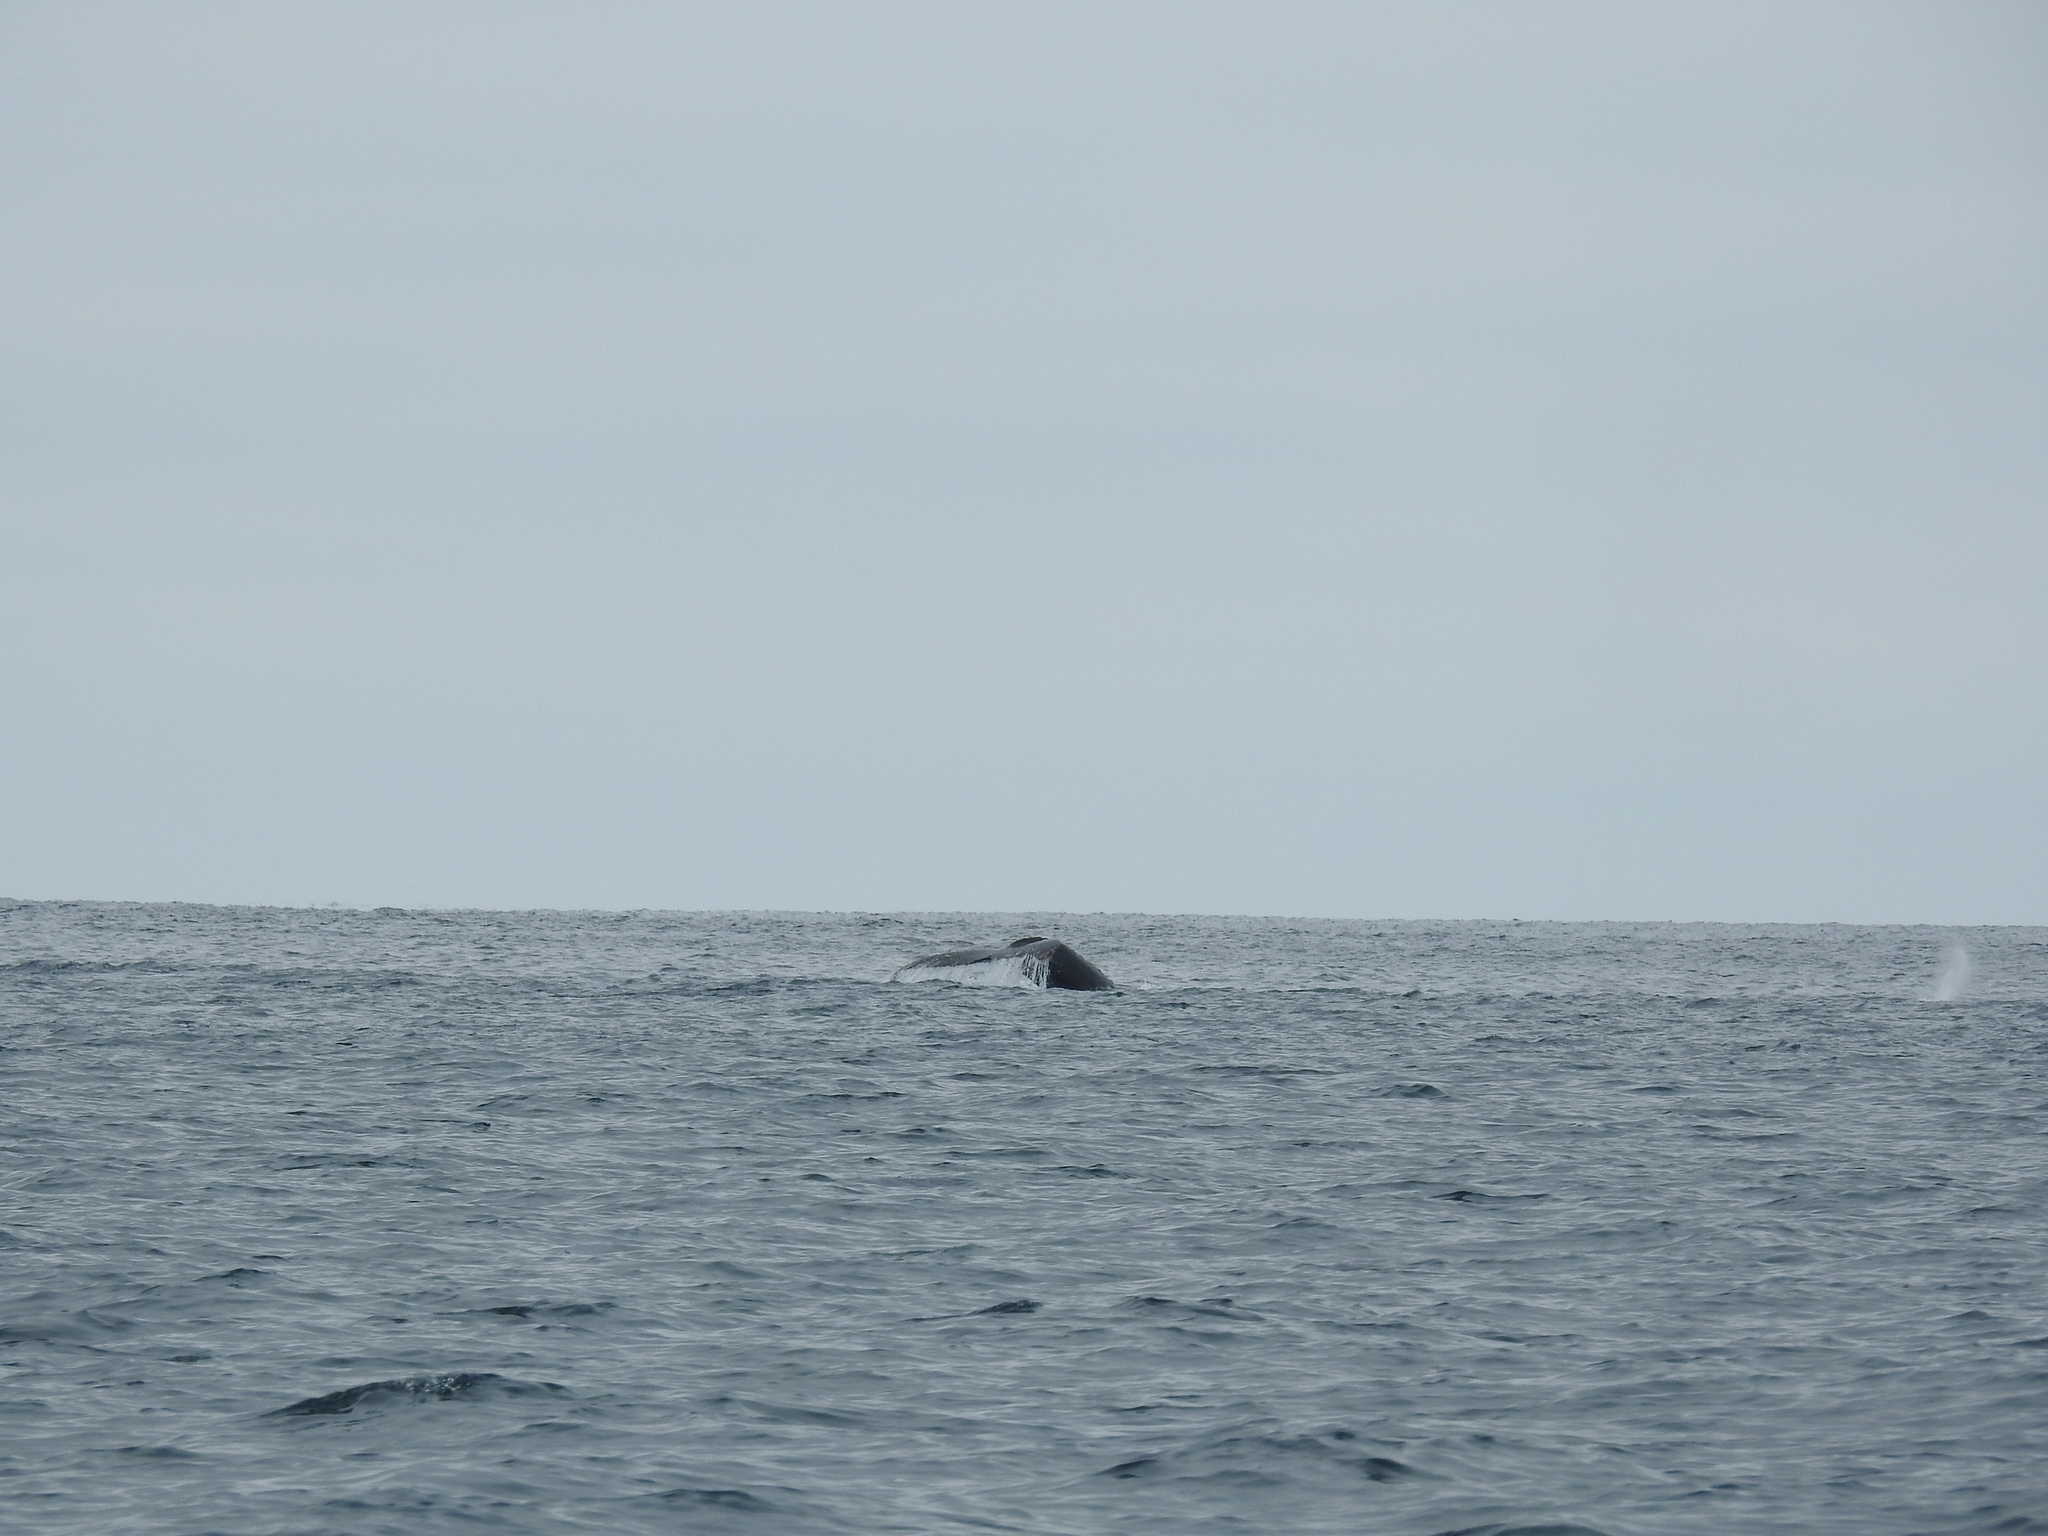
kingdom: Animalia
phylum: Chordata
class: Mammalia
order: Cetacea
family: Balaenopteridae
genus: Megaptera
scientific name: Megaptera novaeangliae
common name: Humpback whale
